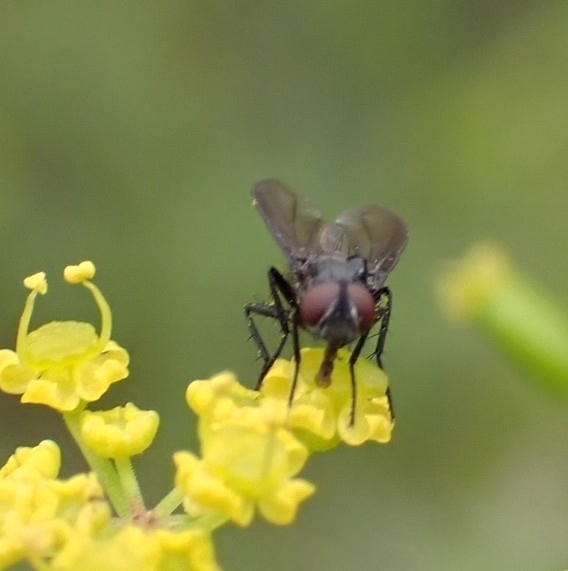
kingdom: Animalia
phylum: Arthropoda
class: Insecta
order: Diptera
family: Calliphoridae
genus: Melanomya
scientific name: Melanomya nana
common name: Little black blowfly
